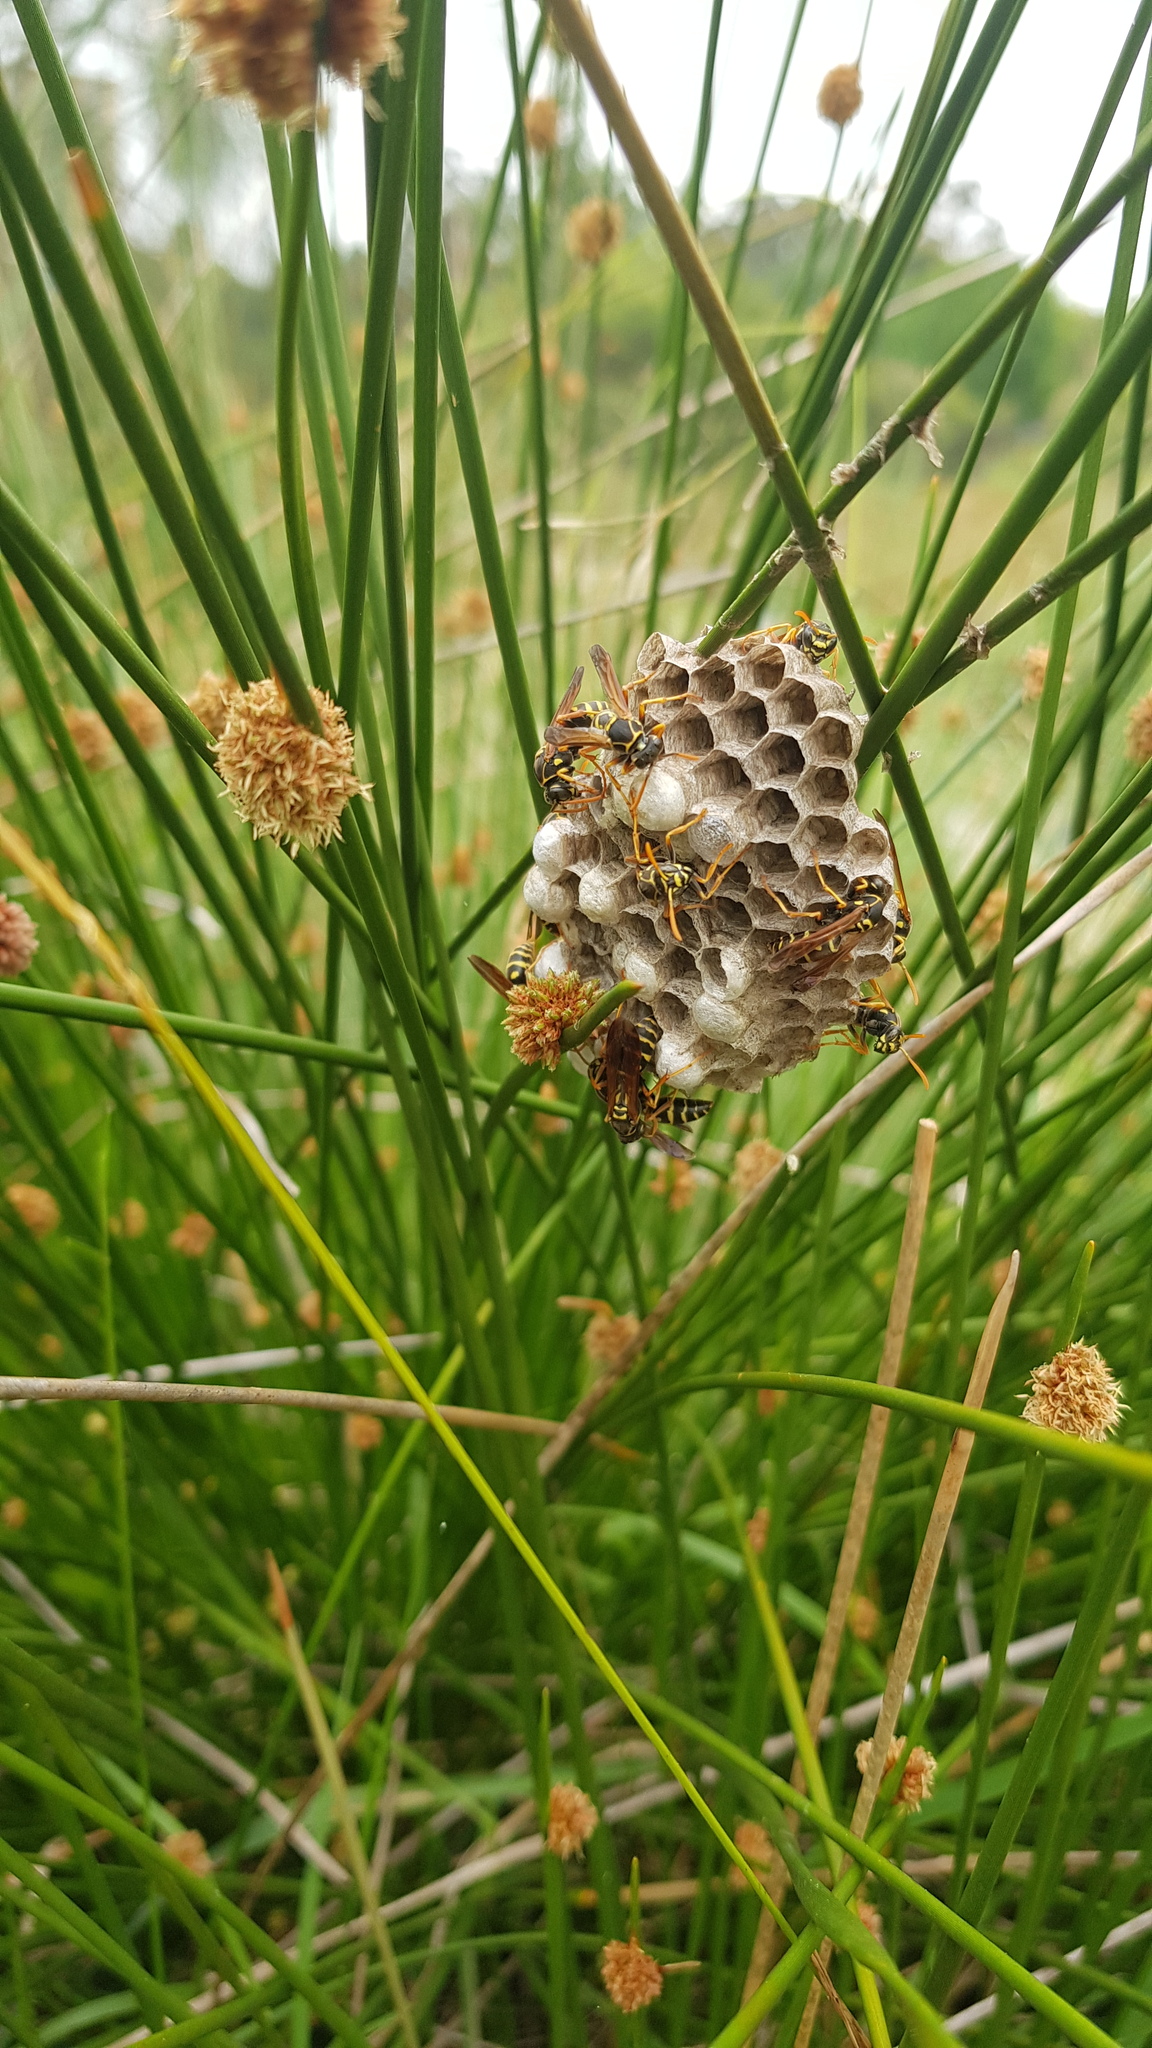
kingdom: Animalia
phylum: Arthropoda
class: Insecta
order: Hymenoptera
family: Eumenidae
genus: Polistes
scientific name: Polistes chinensis
